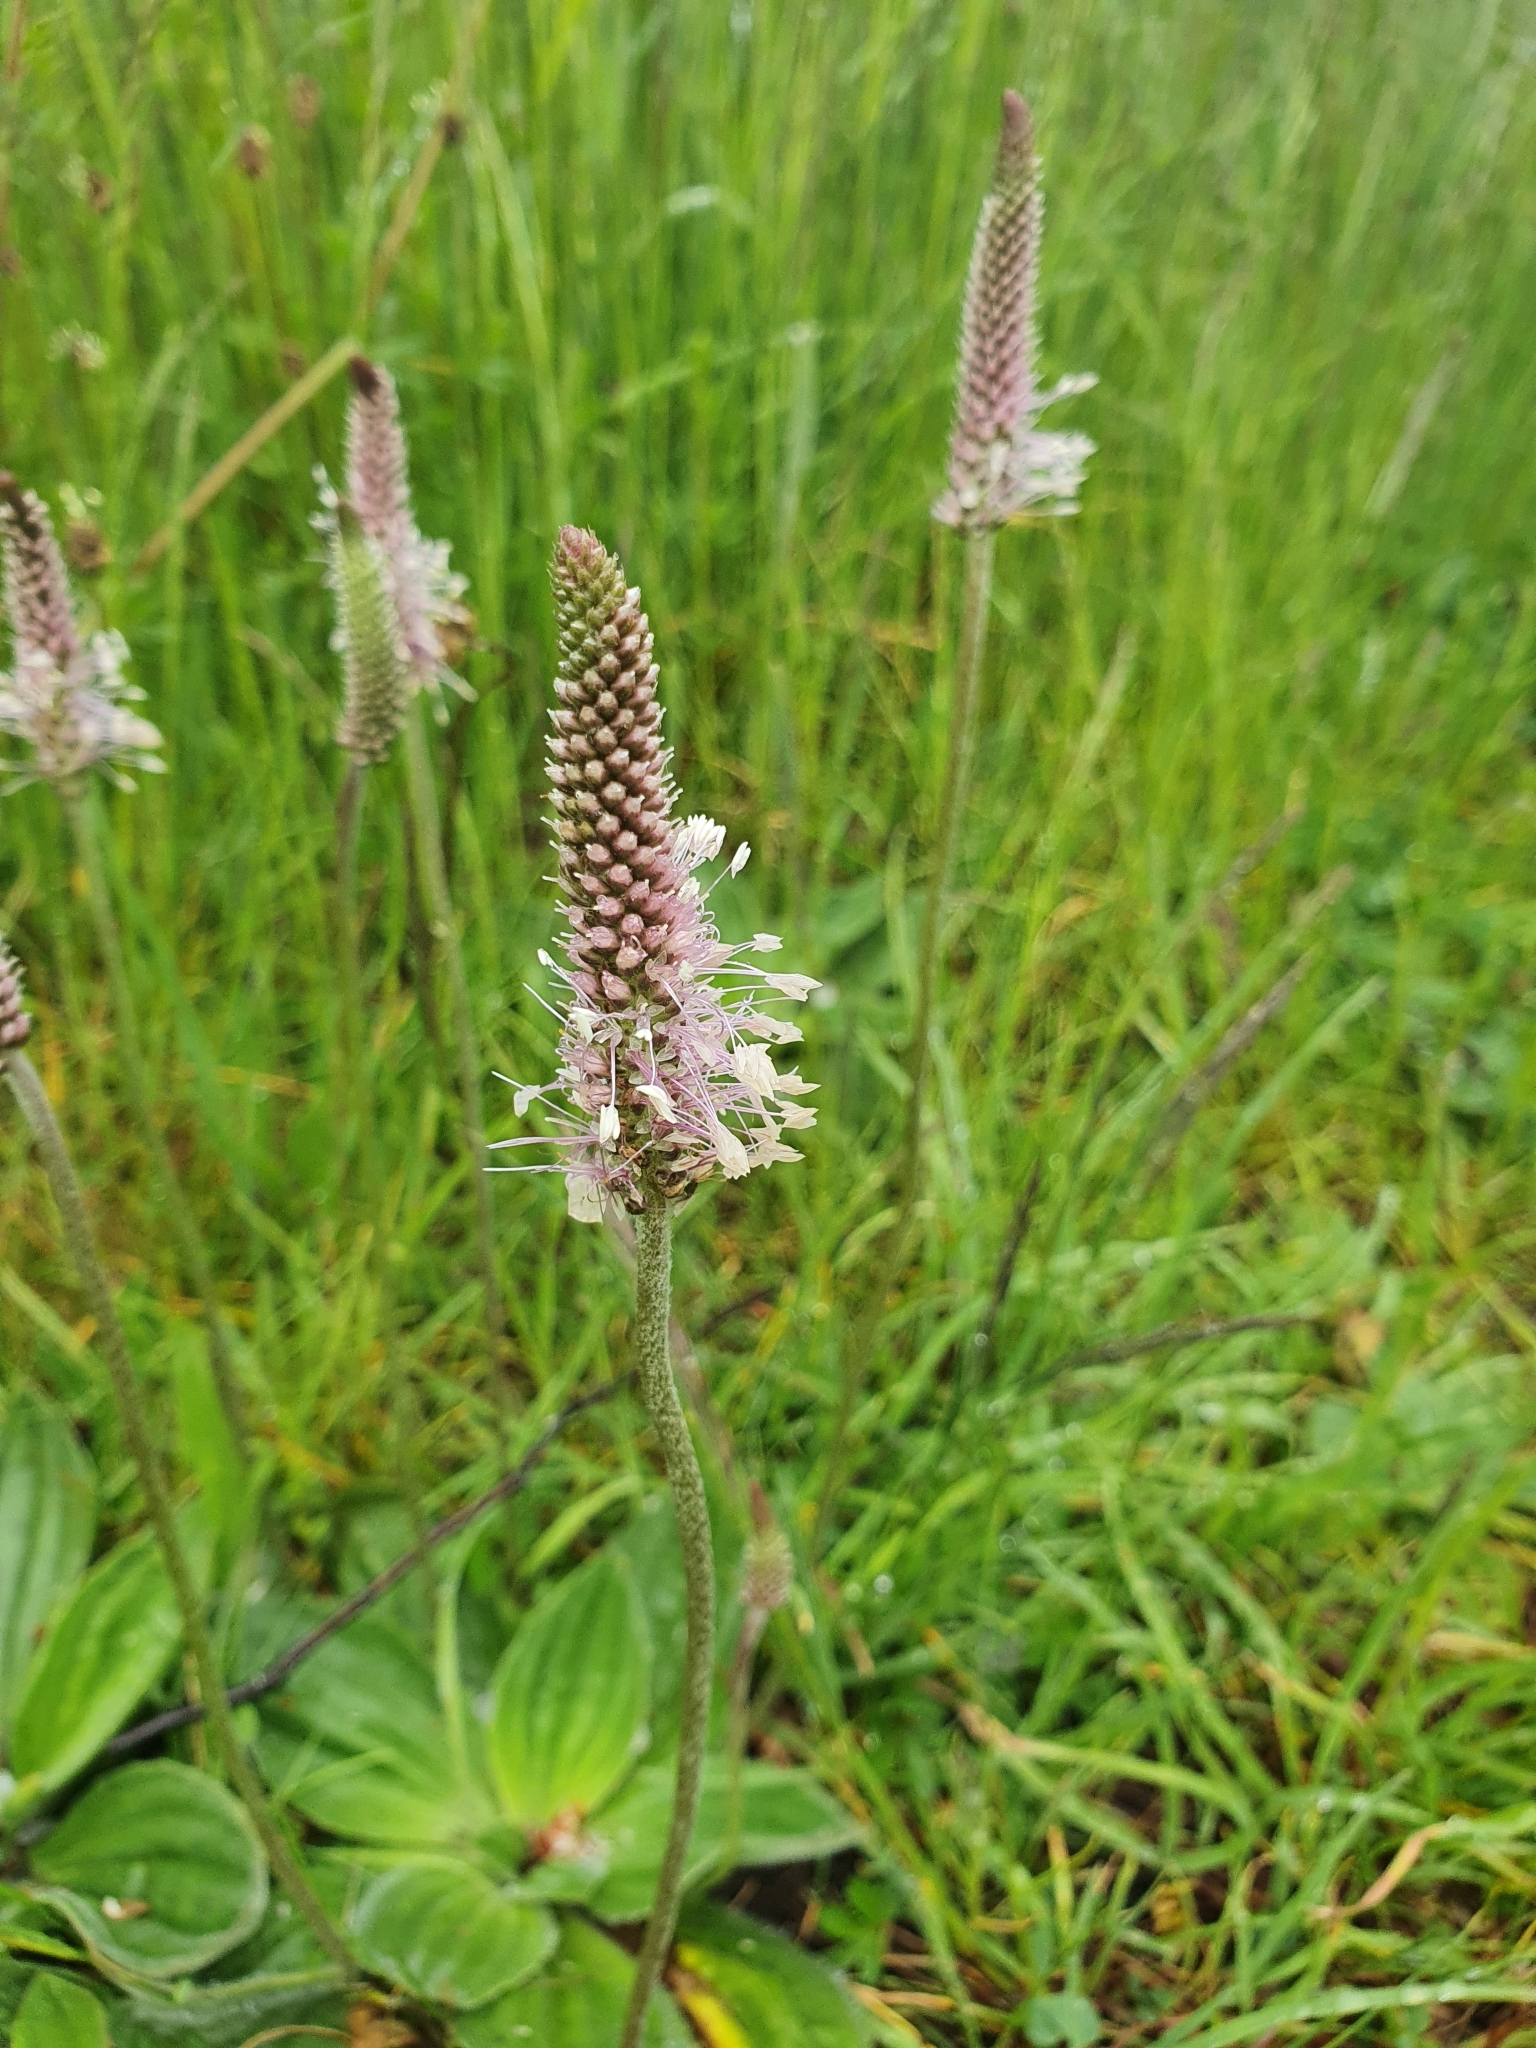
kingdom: Plantae
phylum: Tracheophyta
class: Magnoliopsida
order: Lamiales
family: Plantaginaceae
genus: Plantago
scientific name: Plantago media
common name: Hoary plantain
